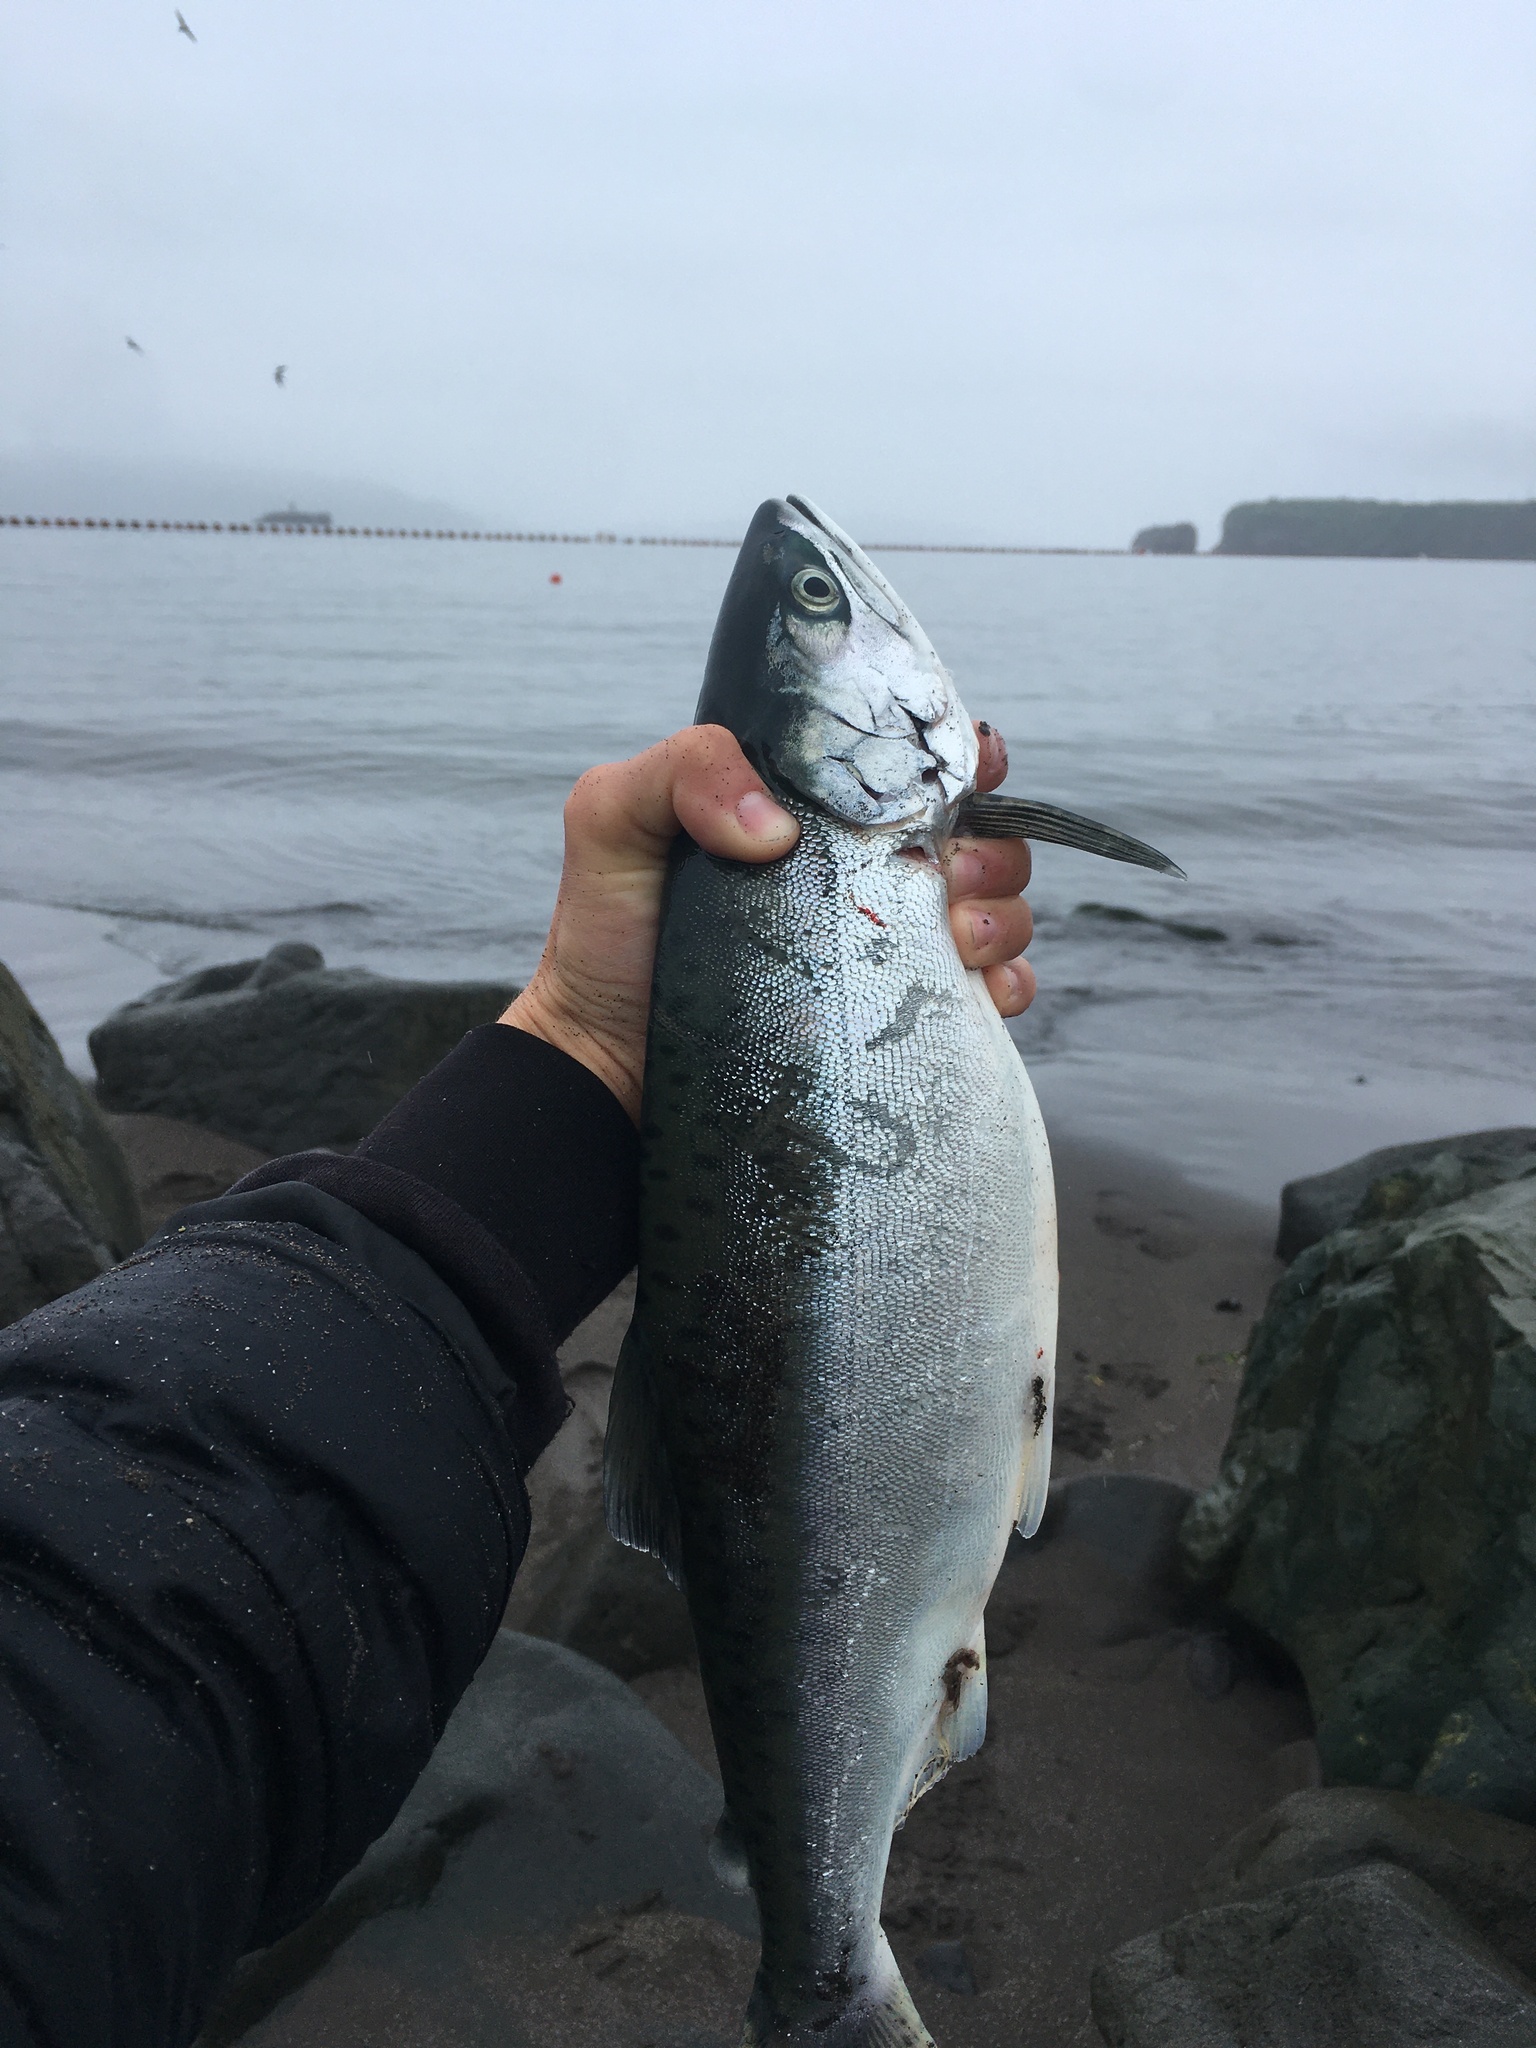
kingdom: Animalia
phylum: Chordata
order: Salmoniformes
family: Salmonidae
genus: Oncorhynchus
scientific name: Oncorhynchus gorbuscha
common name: Humpback salmon
